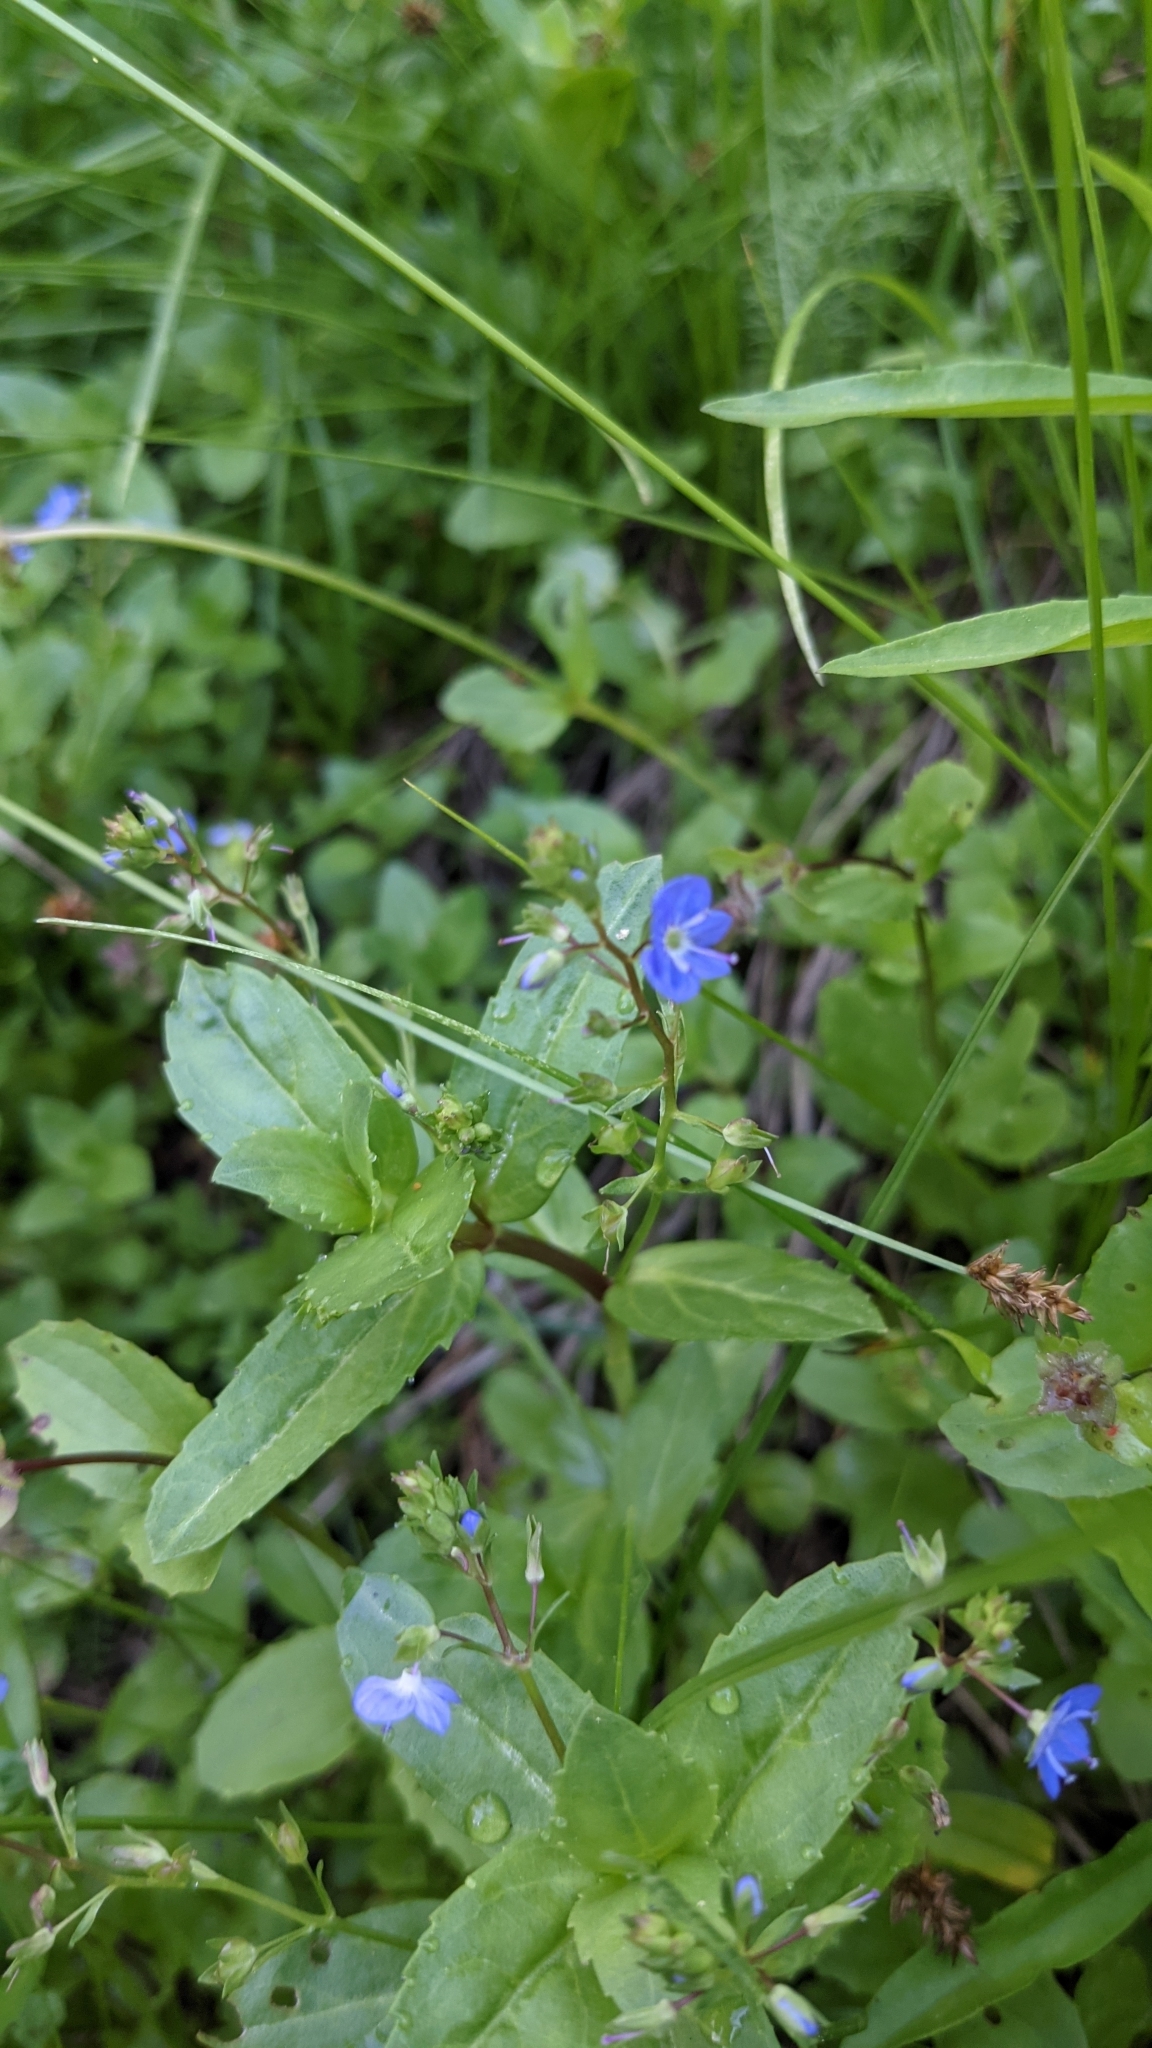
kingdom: Plantae
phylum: Tracheophyta
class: Magnoliopsida
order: Lamiales
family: Plantaginaceae
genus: Veronica
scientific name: Veronica americana
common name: American brooklime
